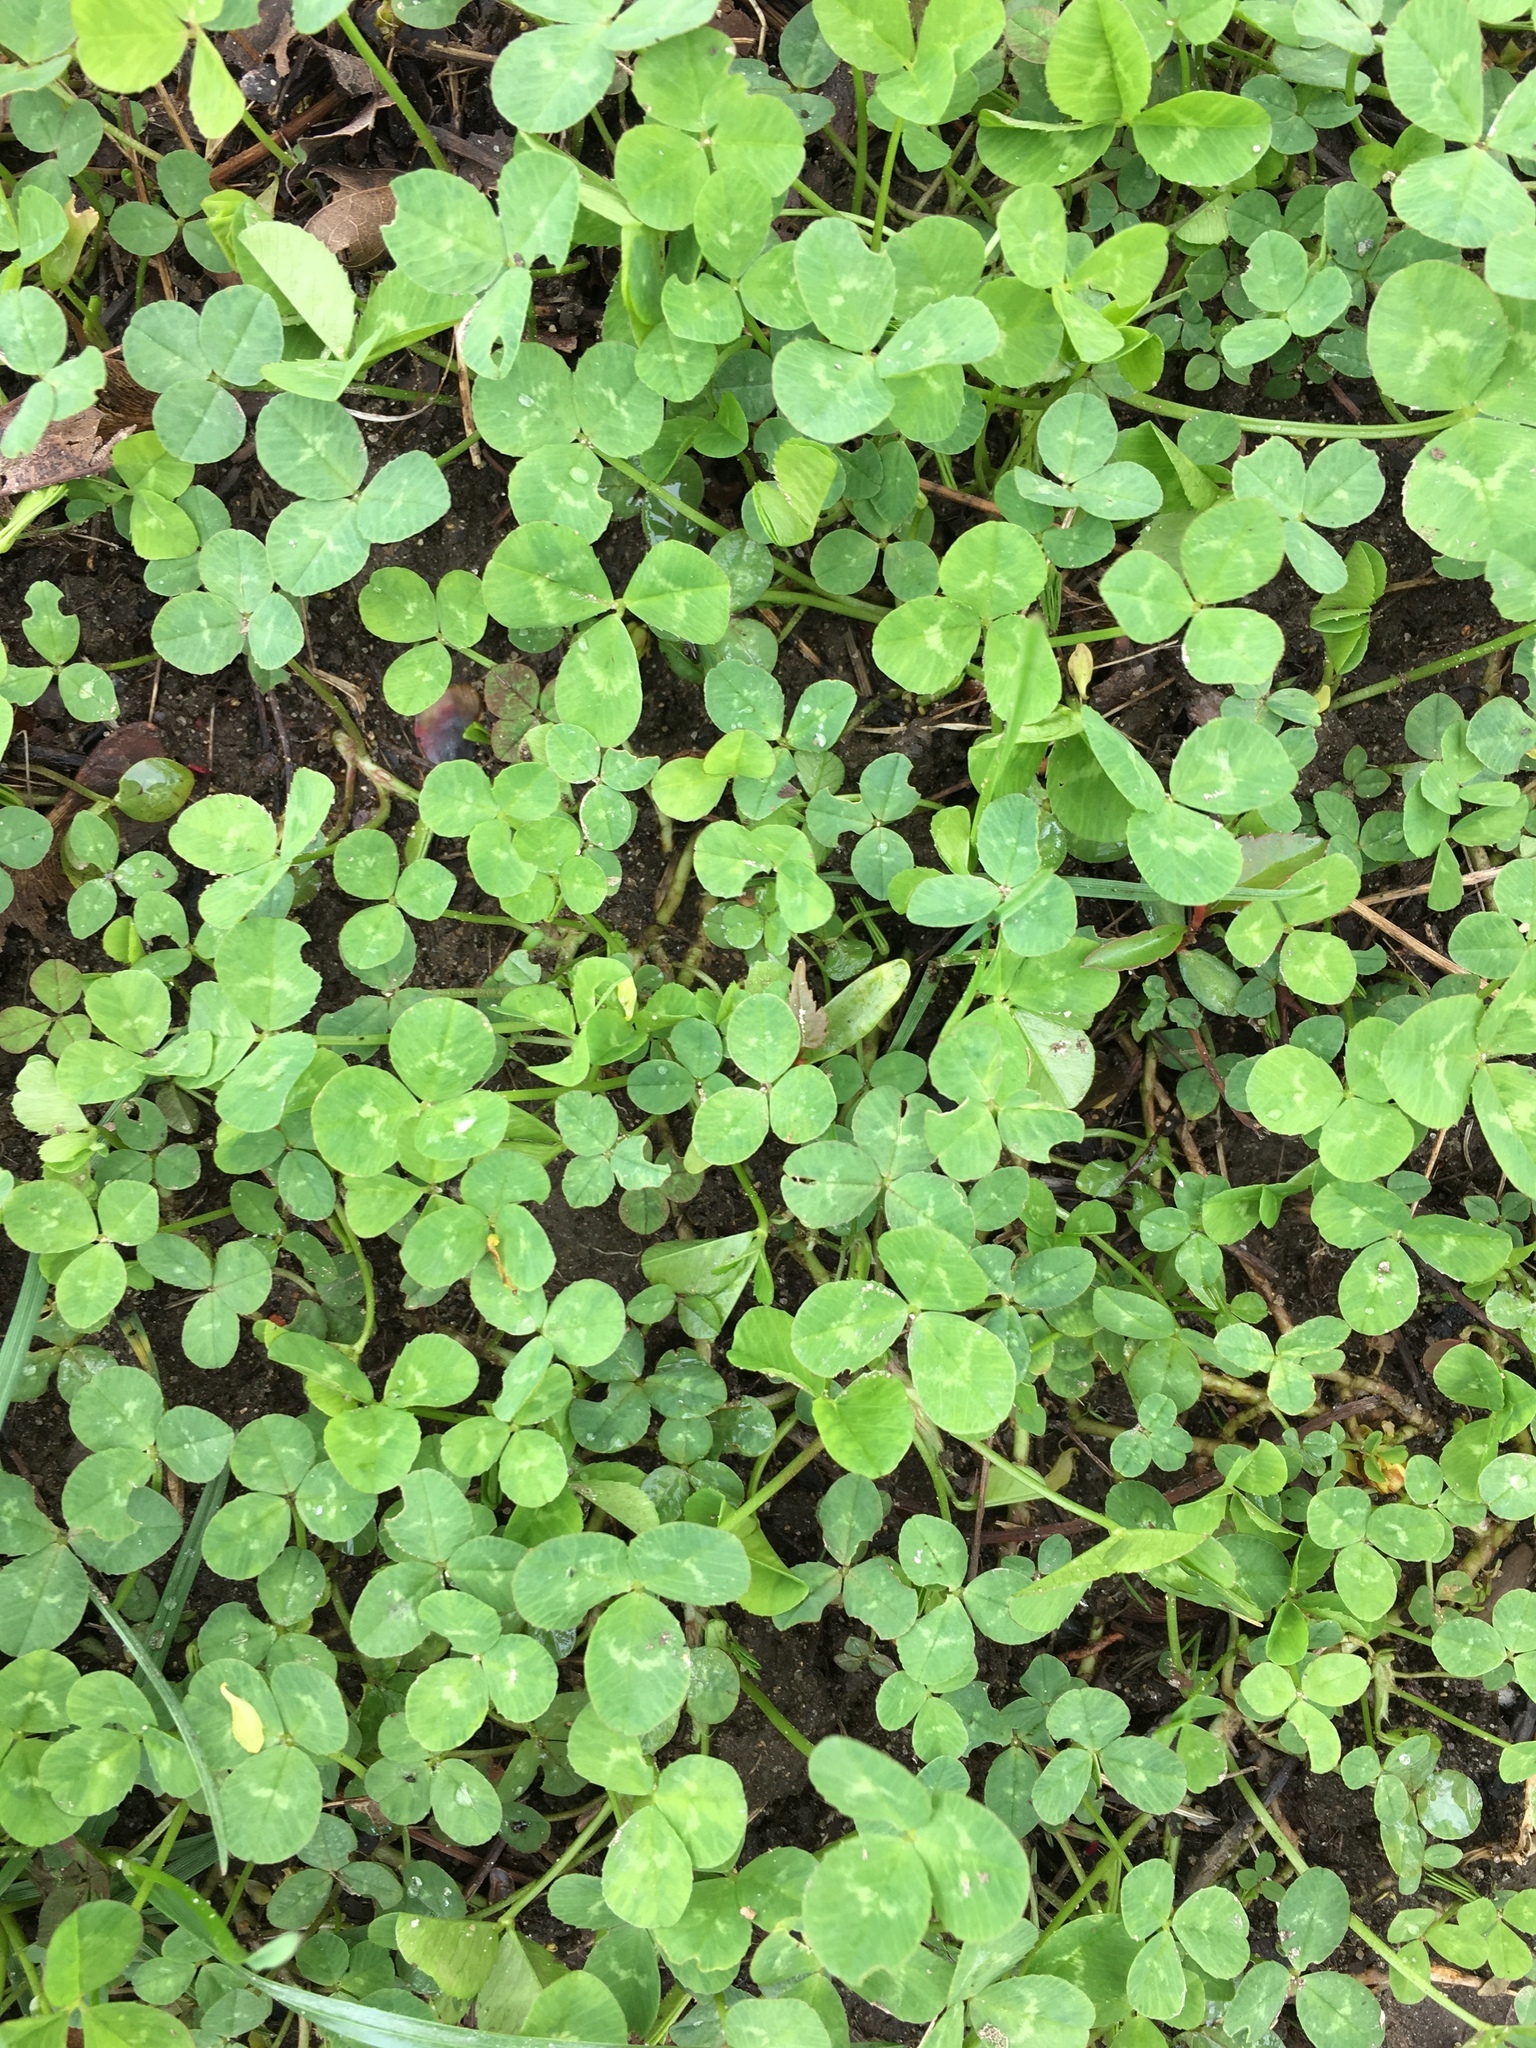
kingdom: Plantae
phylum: Tracheophyta
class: Magnoliopsida
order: Fabales
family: Fabaceae
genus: Trifolium
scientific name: Trifolium repens
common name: White clover
